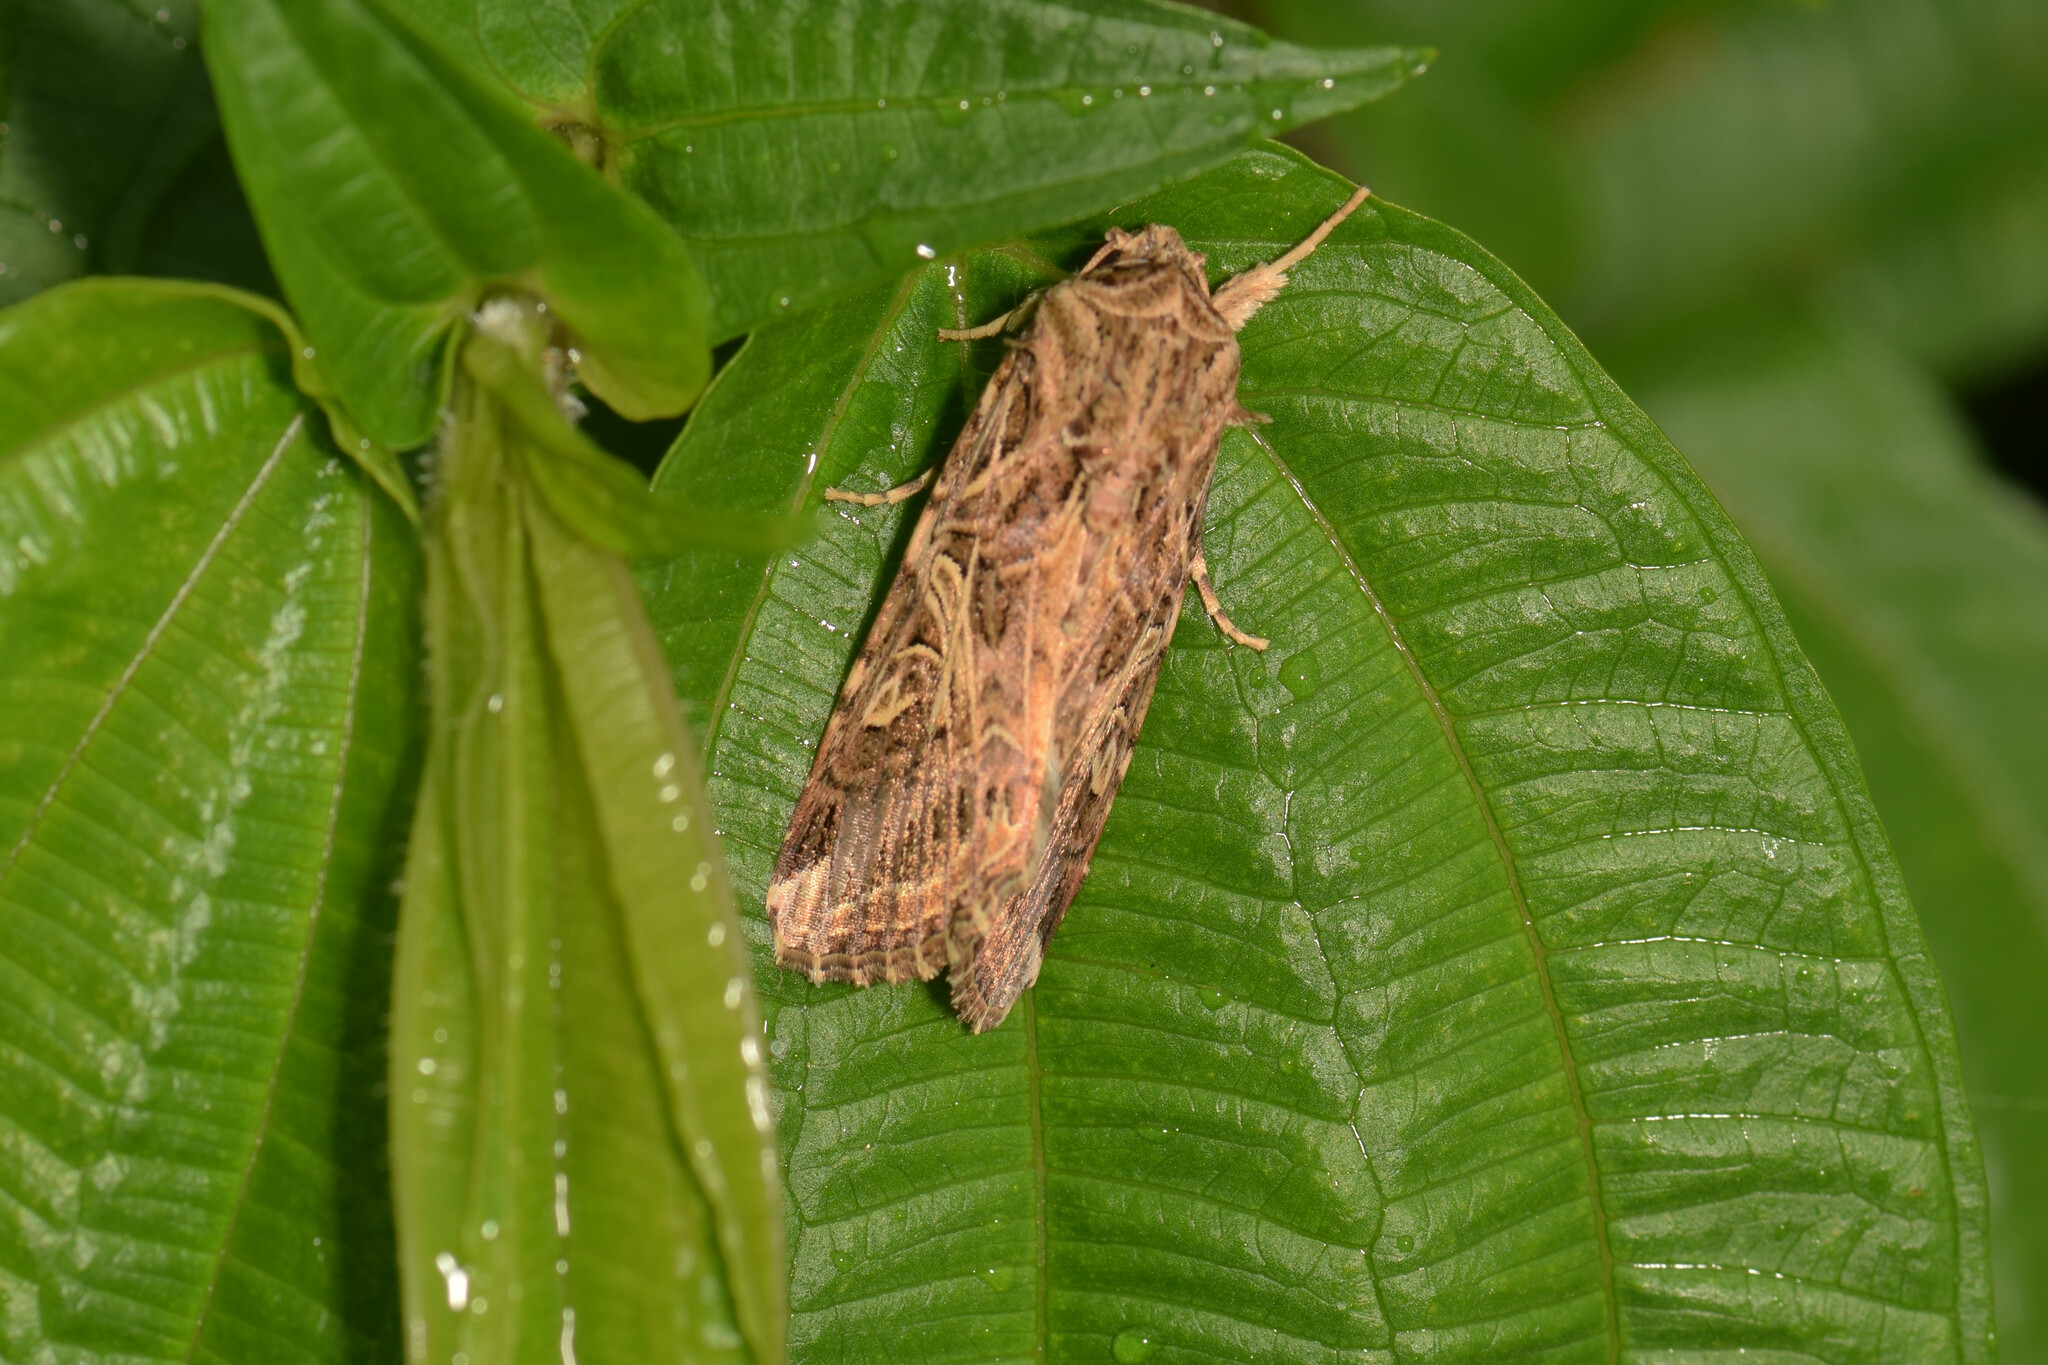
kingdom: Animalia
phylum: Arthropoda
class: Insecta
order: Lepidoptera
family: Noctuidae
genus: Spodoptera
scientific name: Spodoptera litura
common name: Asian cotton leafworm
